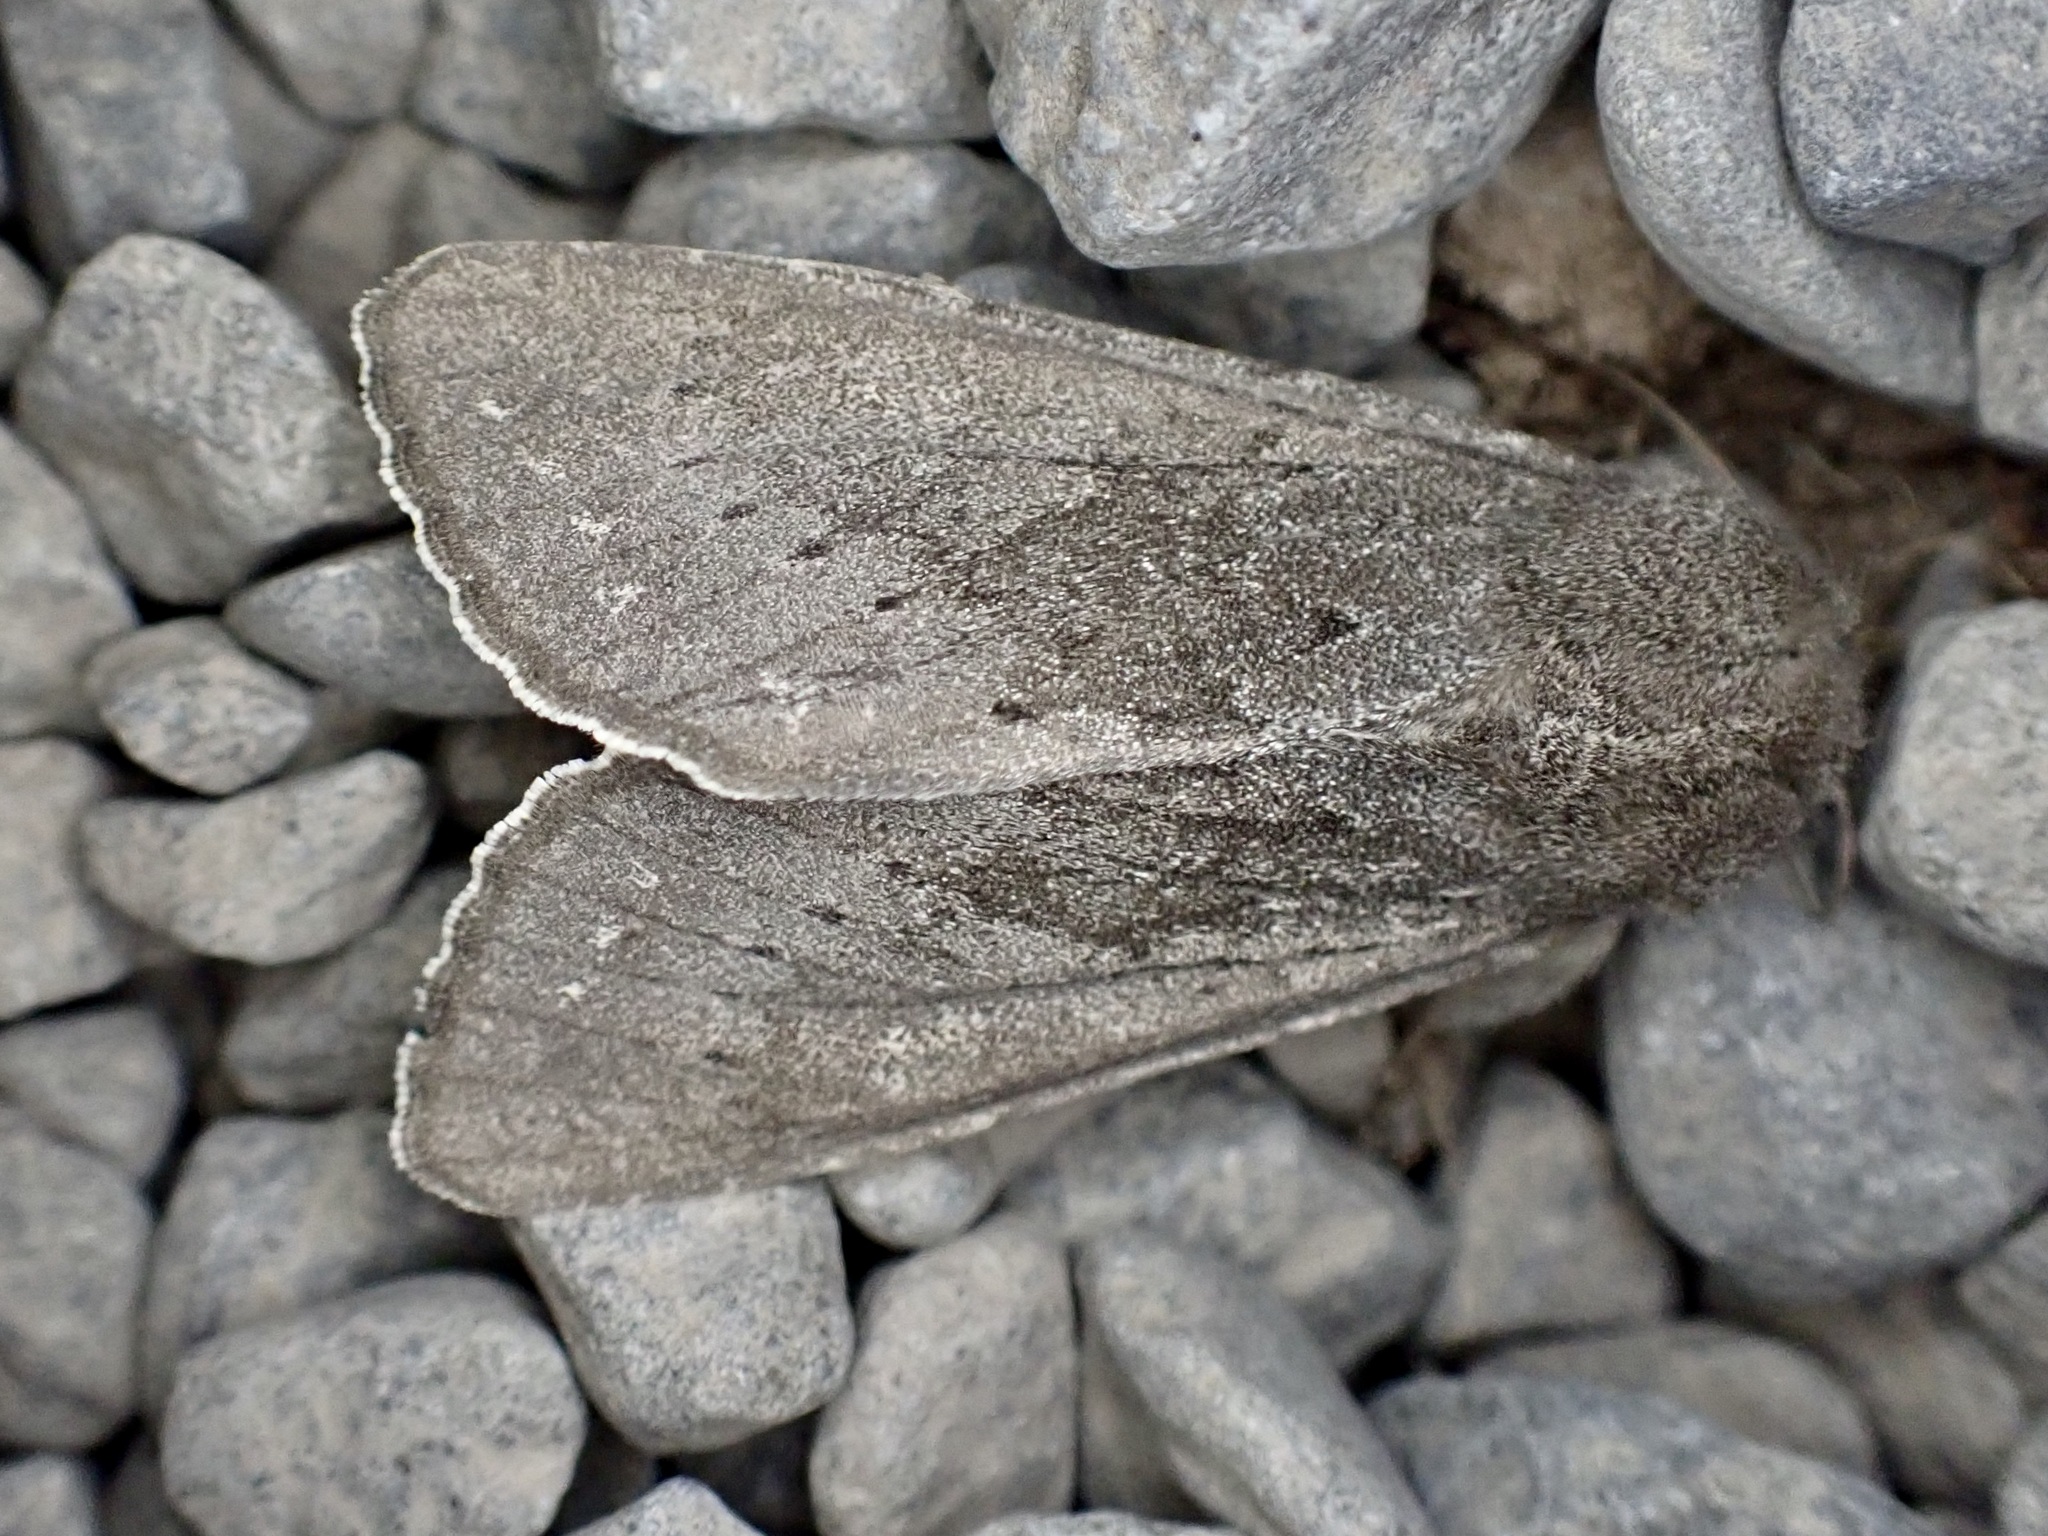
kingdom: Animalia
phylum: Arthropoda
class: Insecta
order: Lepidoptera
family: Noctuidae
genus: Ichneutica
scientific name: Ichneutica nullifera
